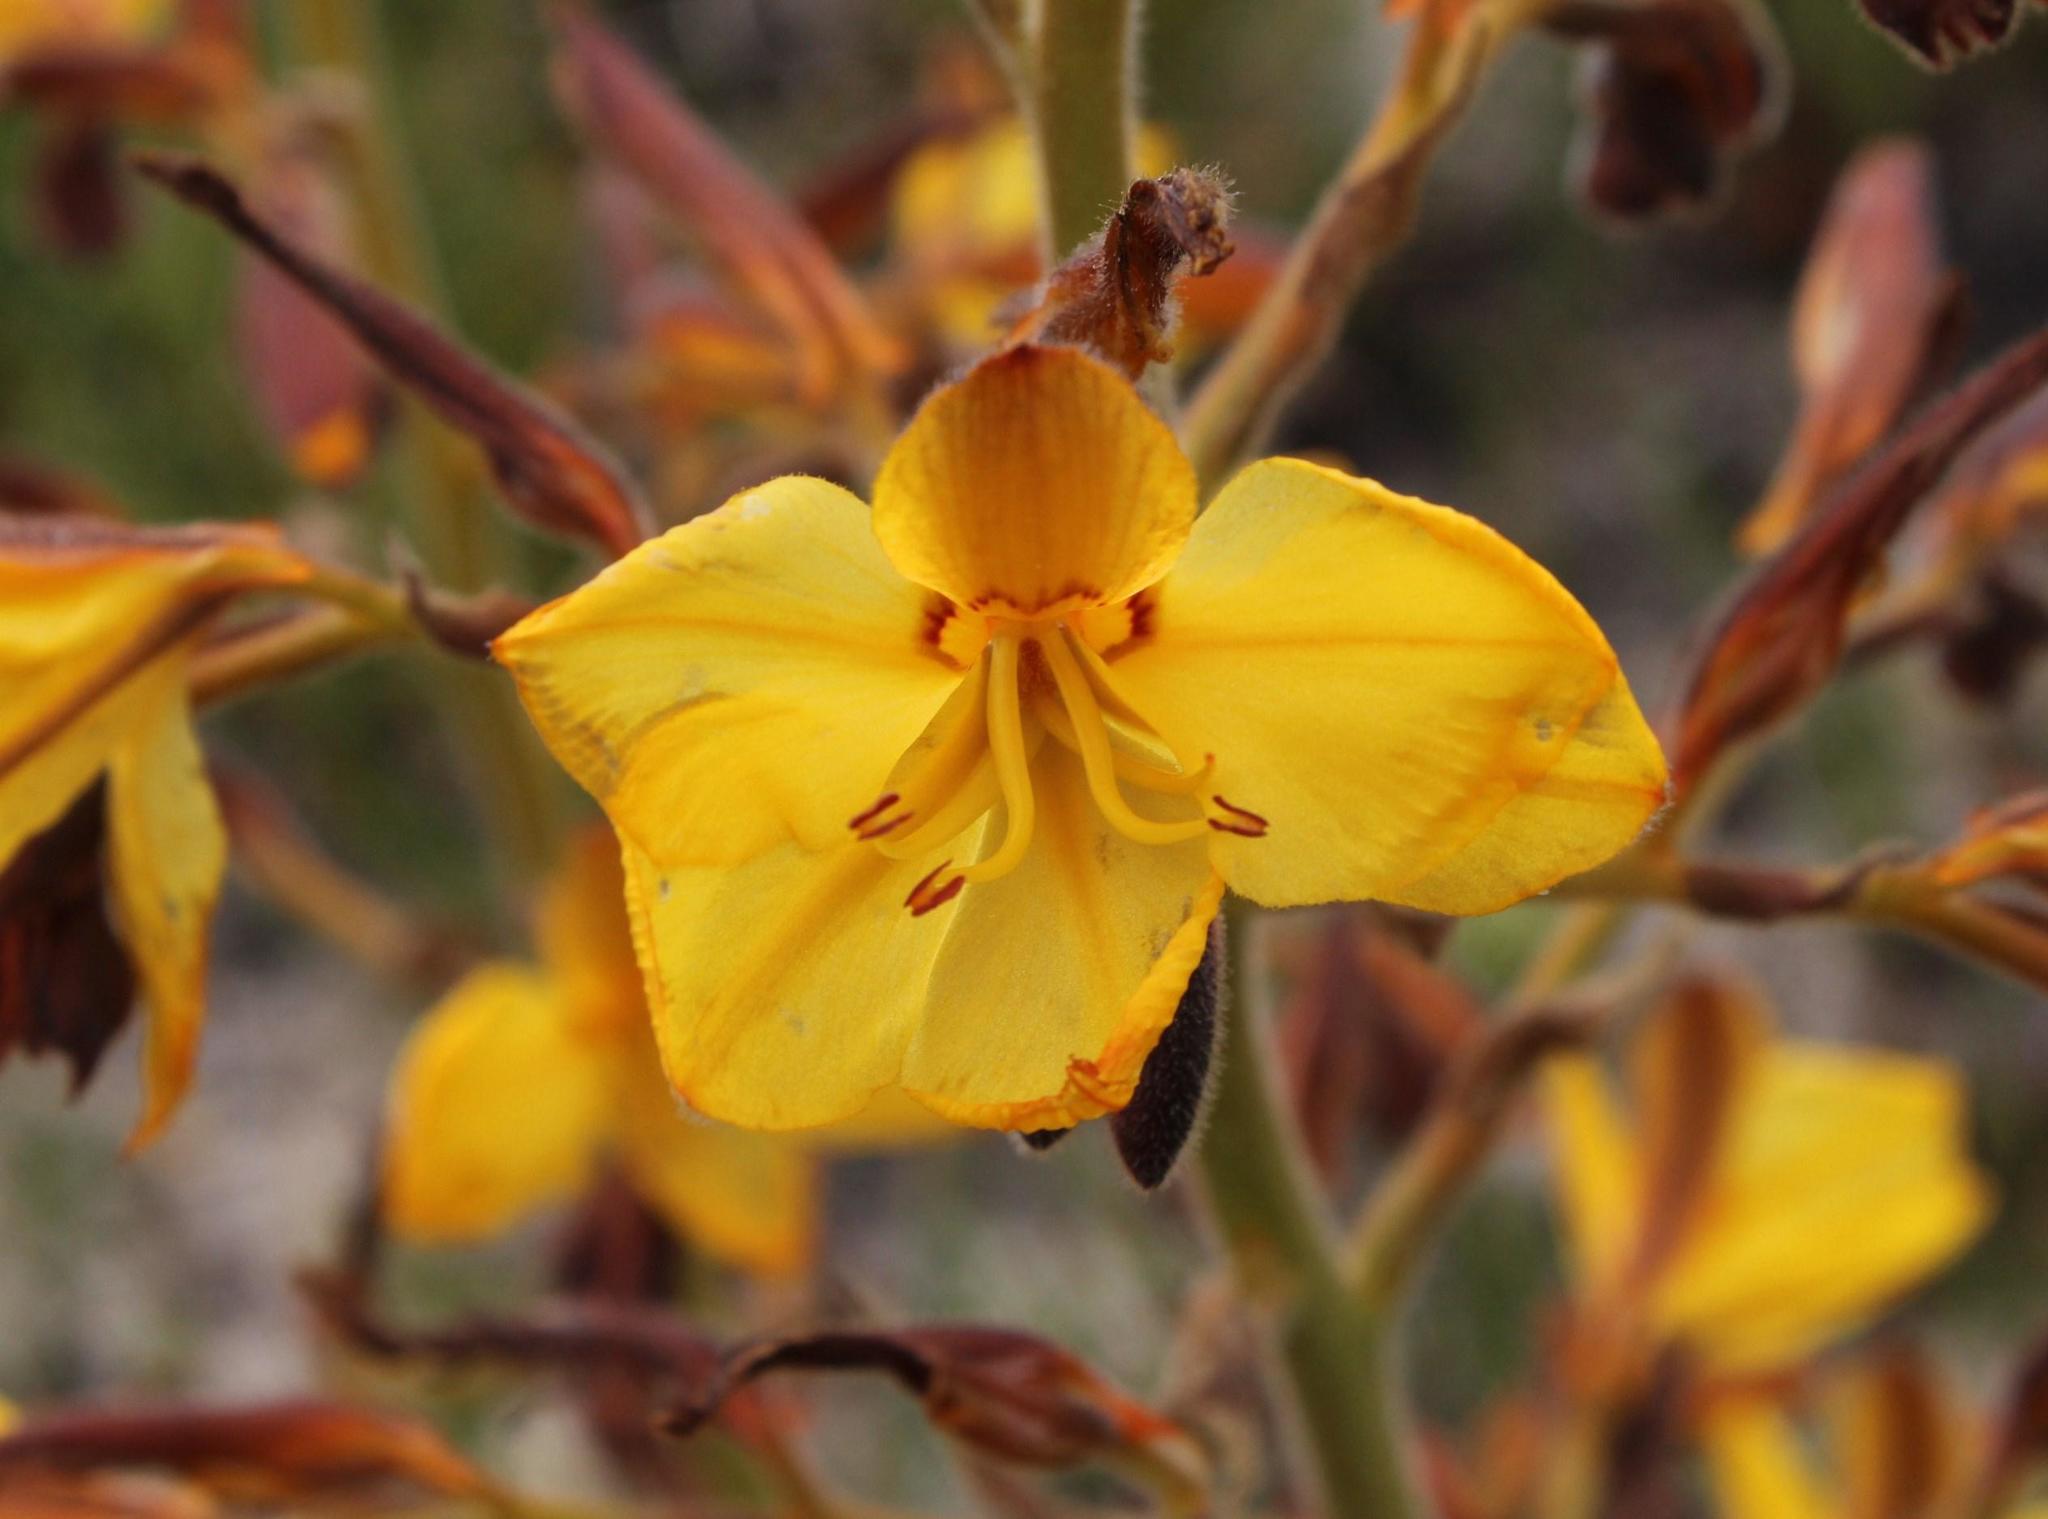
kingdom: Plantae
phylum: Tracheophyta
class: Liliopsida
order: Commelinales
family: Haemodoraceae
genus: Wachendorfia
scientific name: Wachendorfia paniculata
